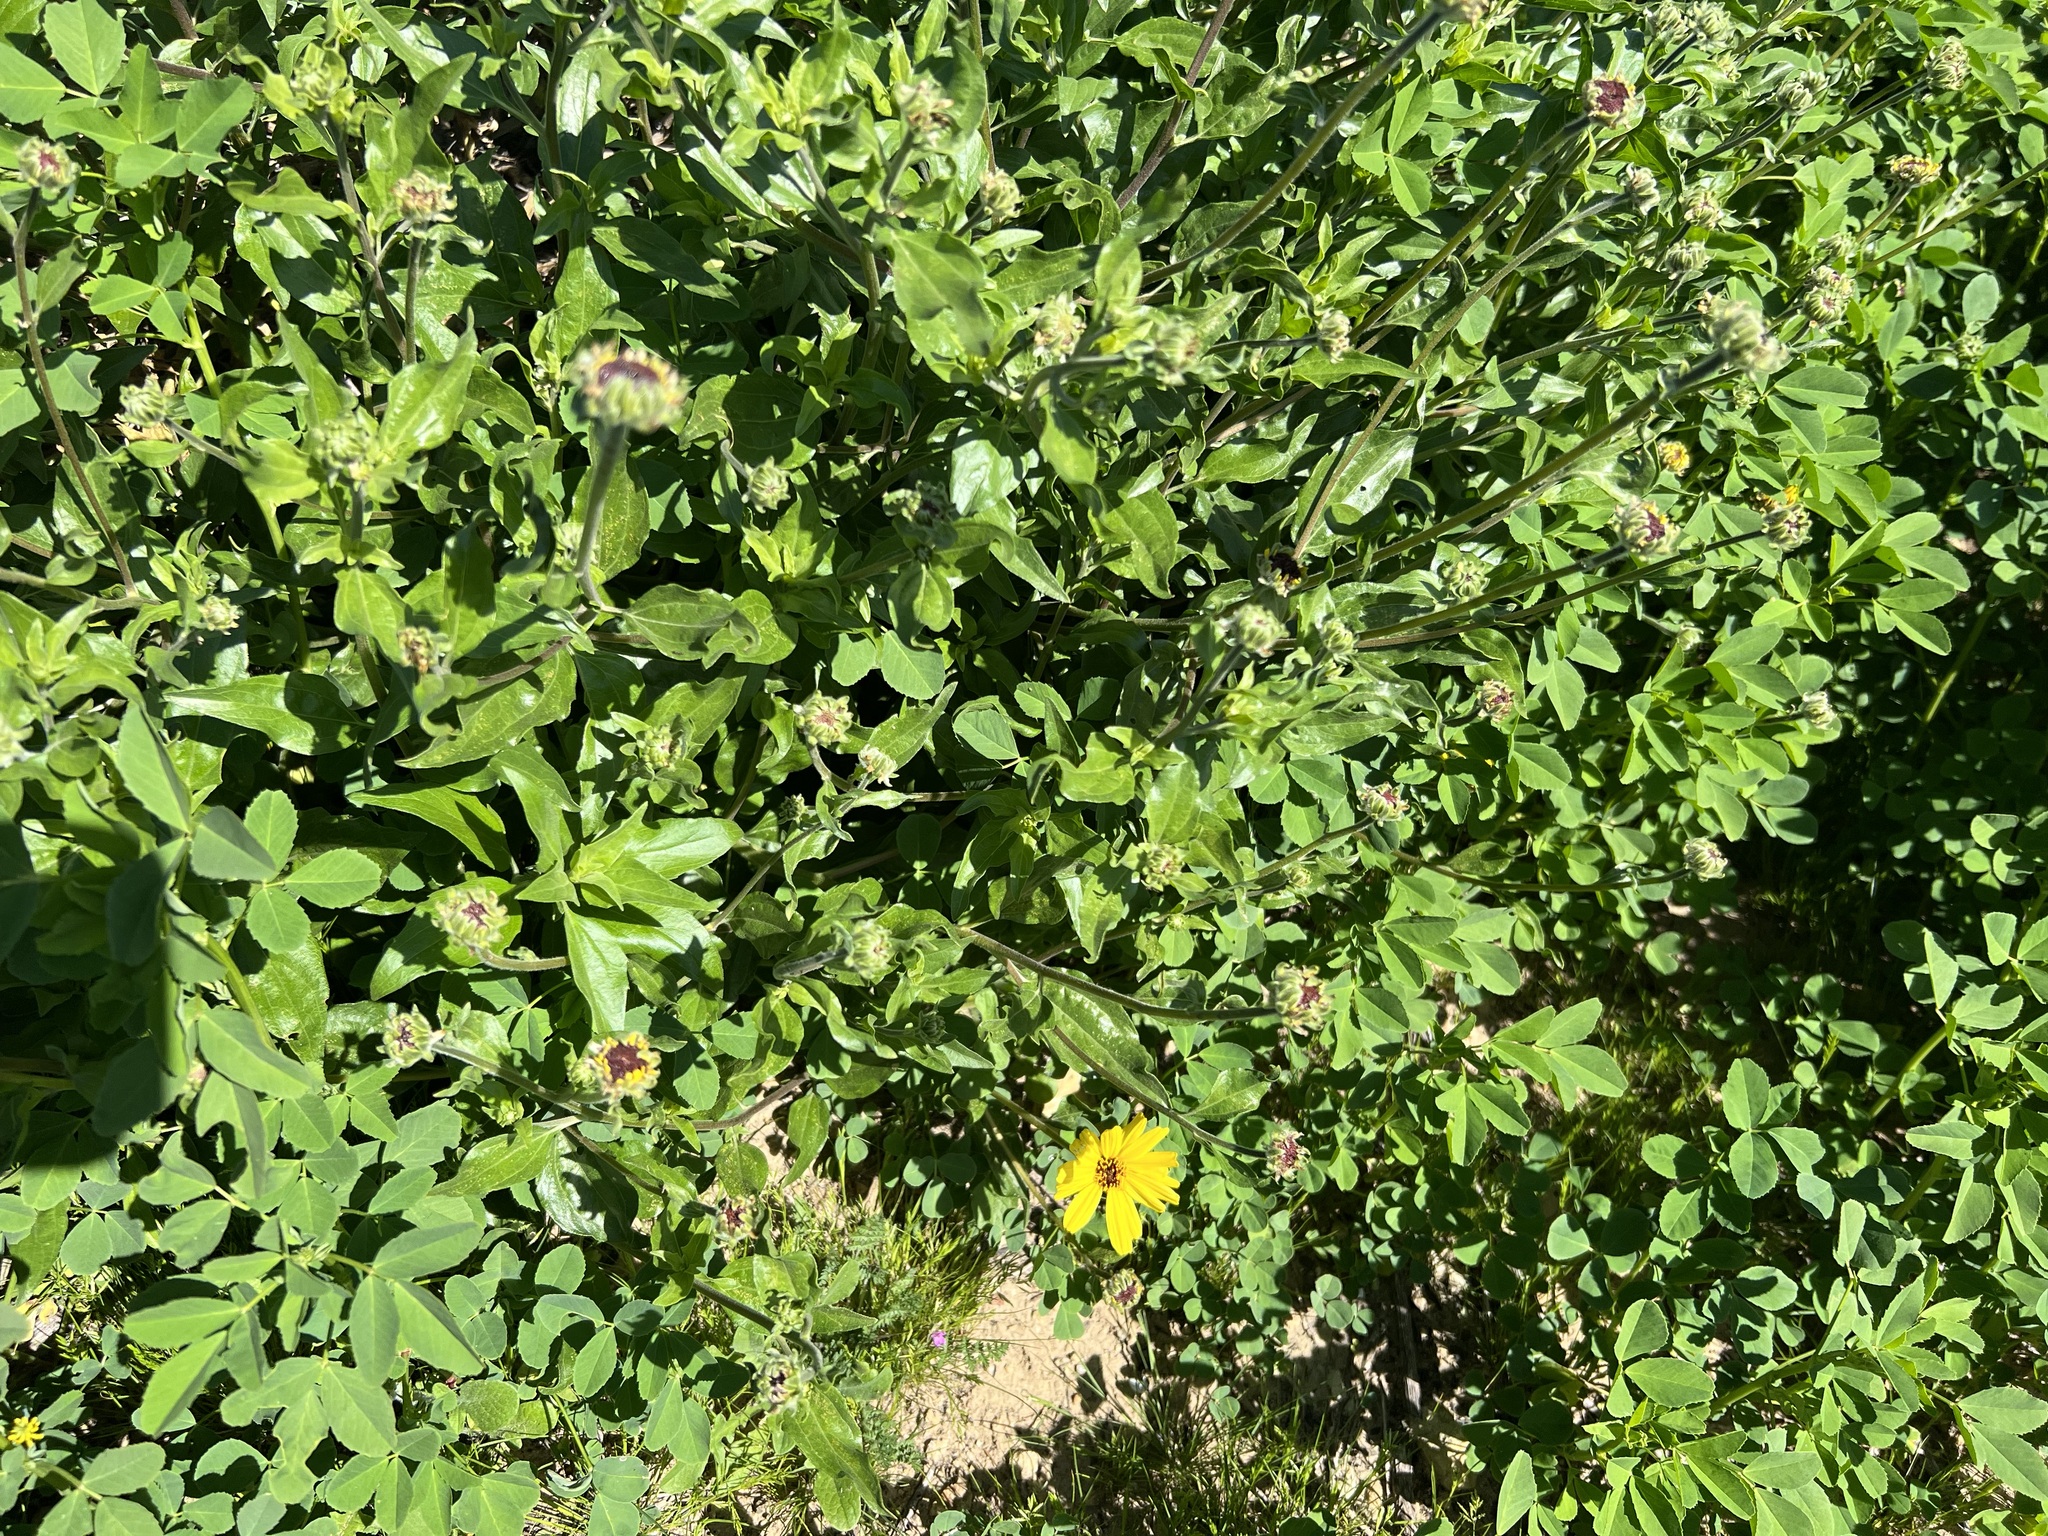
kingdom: Plantae
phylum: Tracheophyta
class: Magnoliopsida
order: Asterales
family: Asteraceae
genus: Encelia
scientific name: Encelia californica
